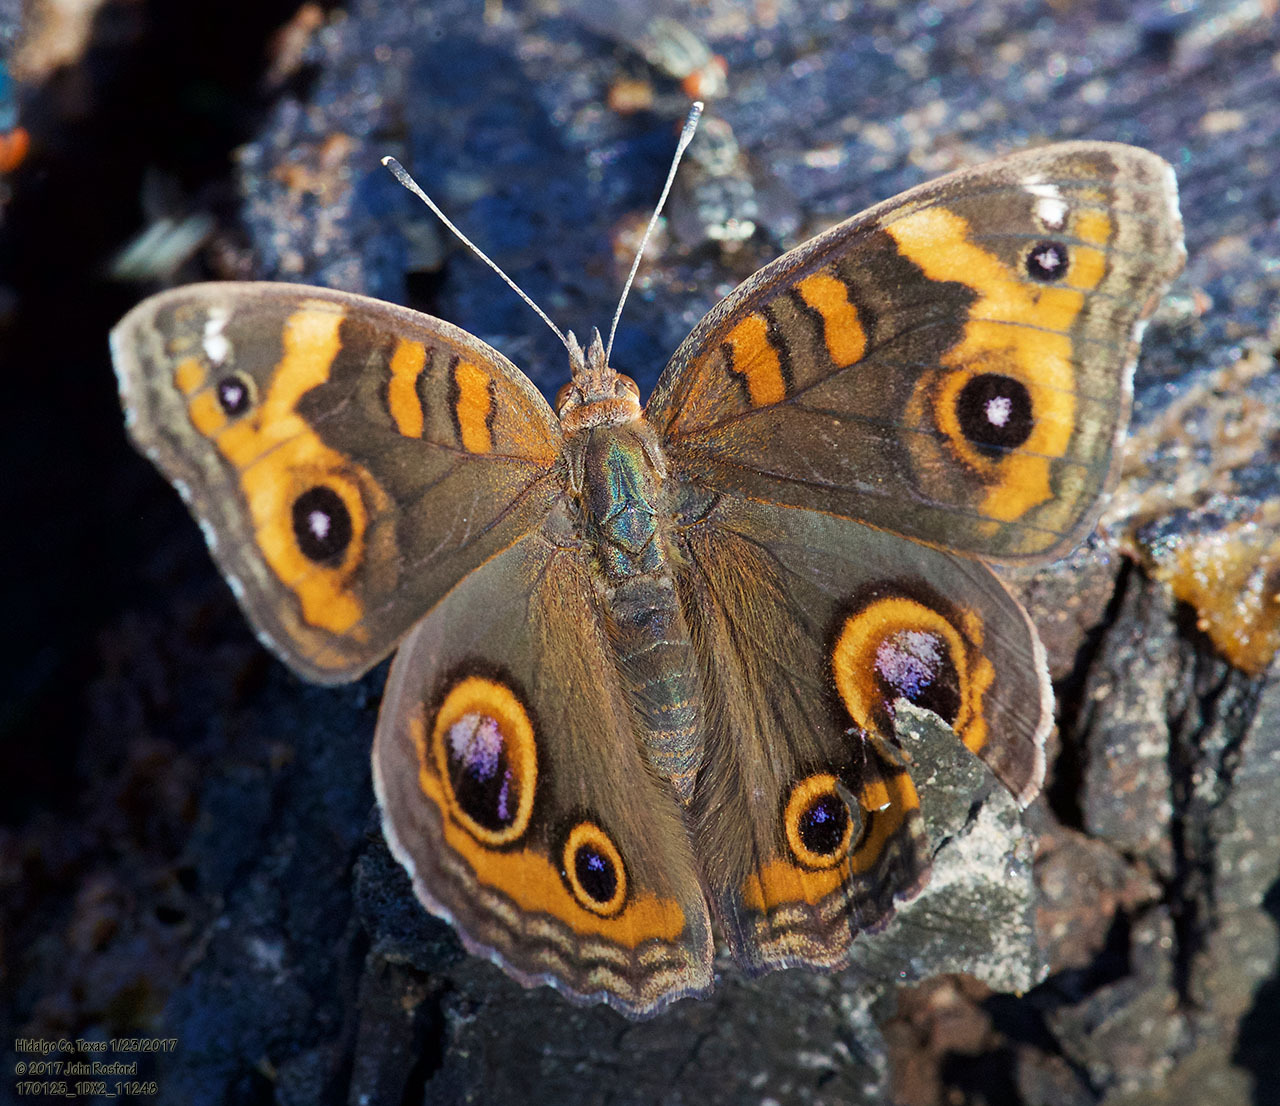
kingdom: Animalia
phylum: Arthropoda
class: Insecta
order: Lepidoptera
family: Nymphalidae
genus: Junonia
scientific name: Junonia coenia
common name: Common buckeye
